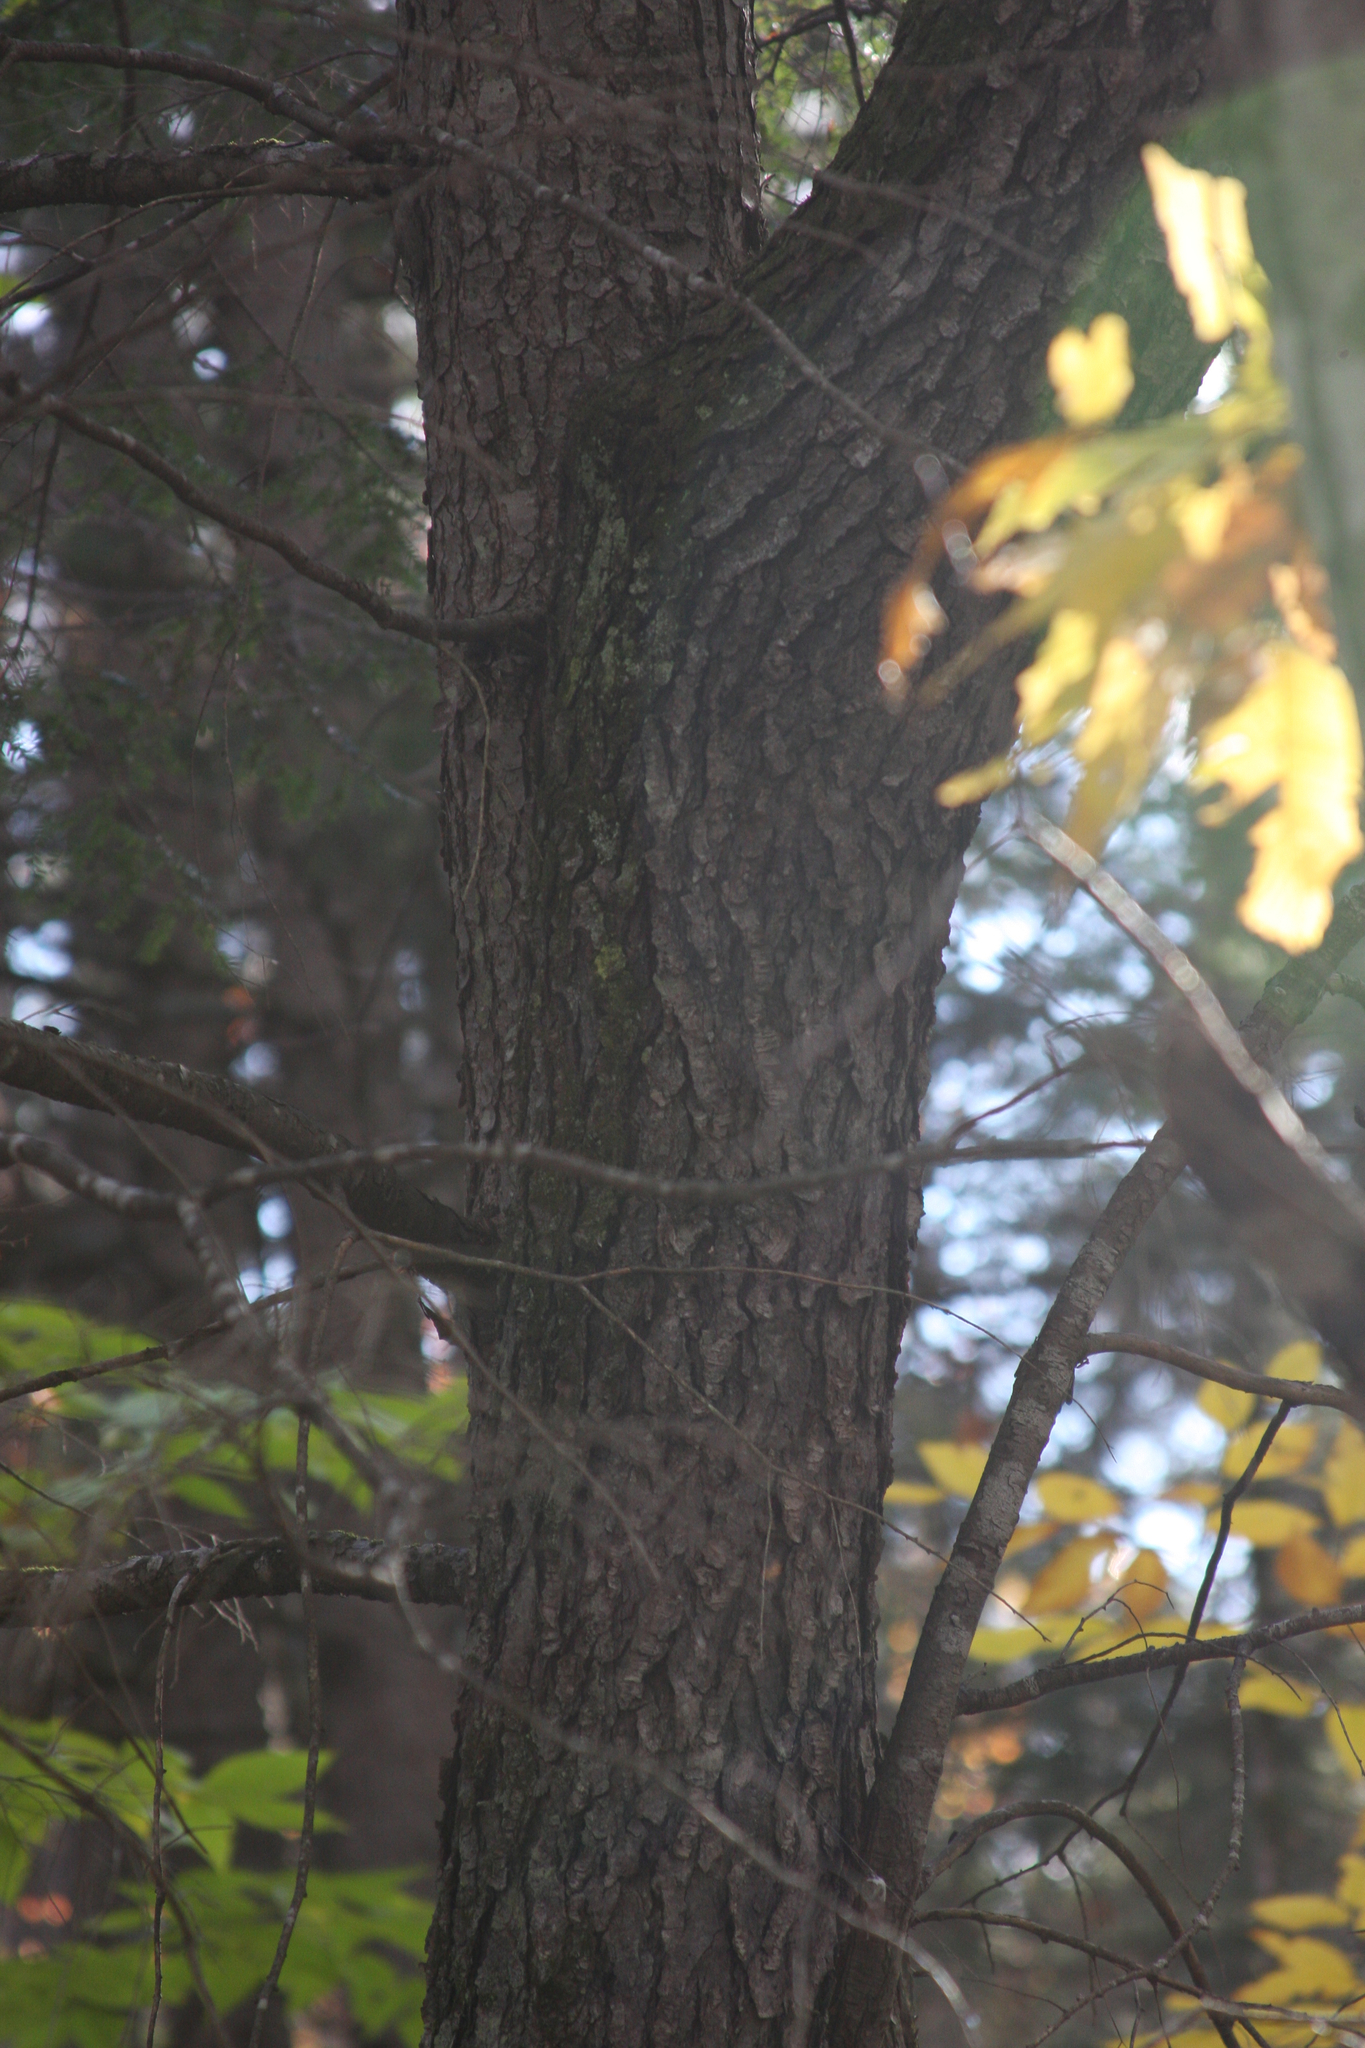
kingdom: Plantae
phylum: Tracheophyta
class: Pinopsida
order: Pinales
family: Pinaceae
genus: Tsuga
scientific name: Tsuga canadensis
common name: Eastern hemlock
